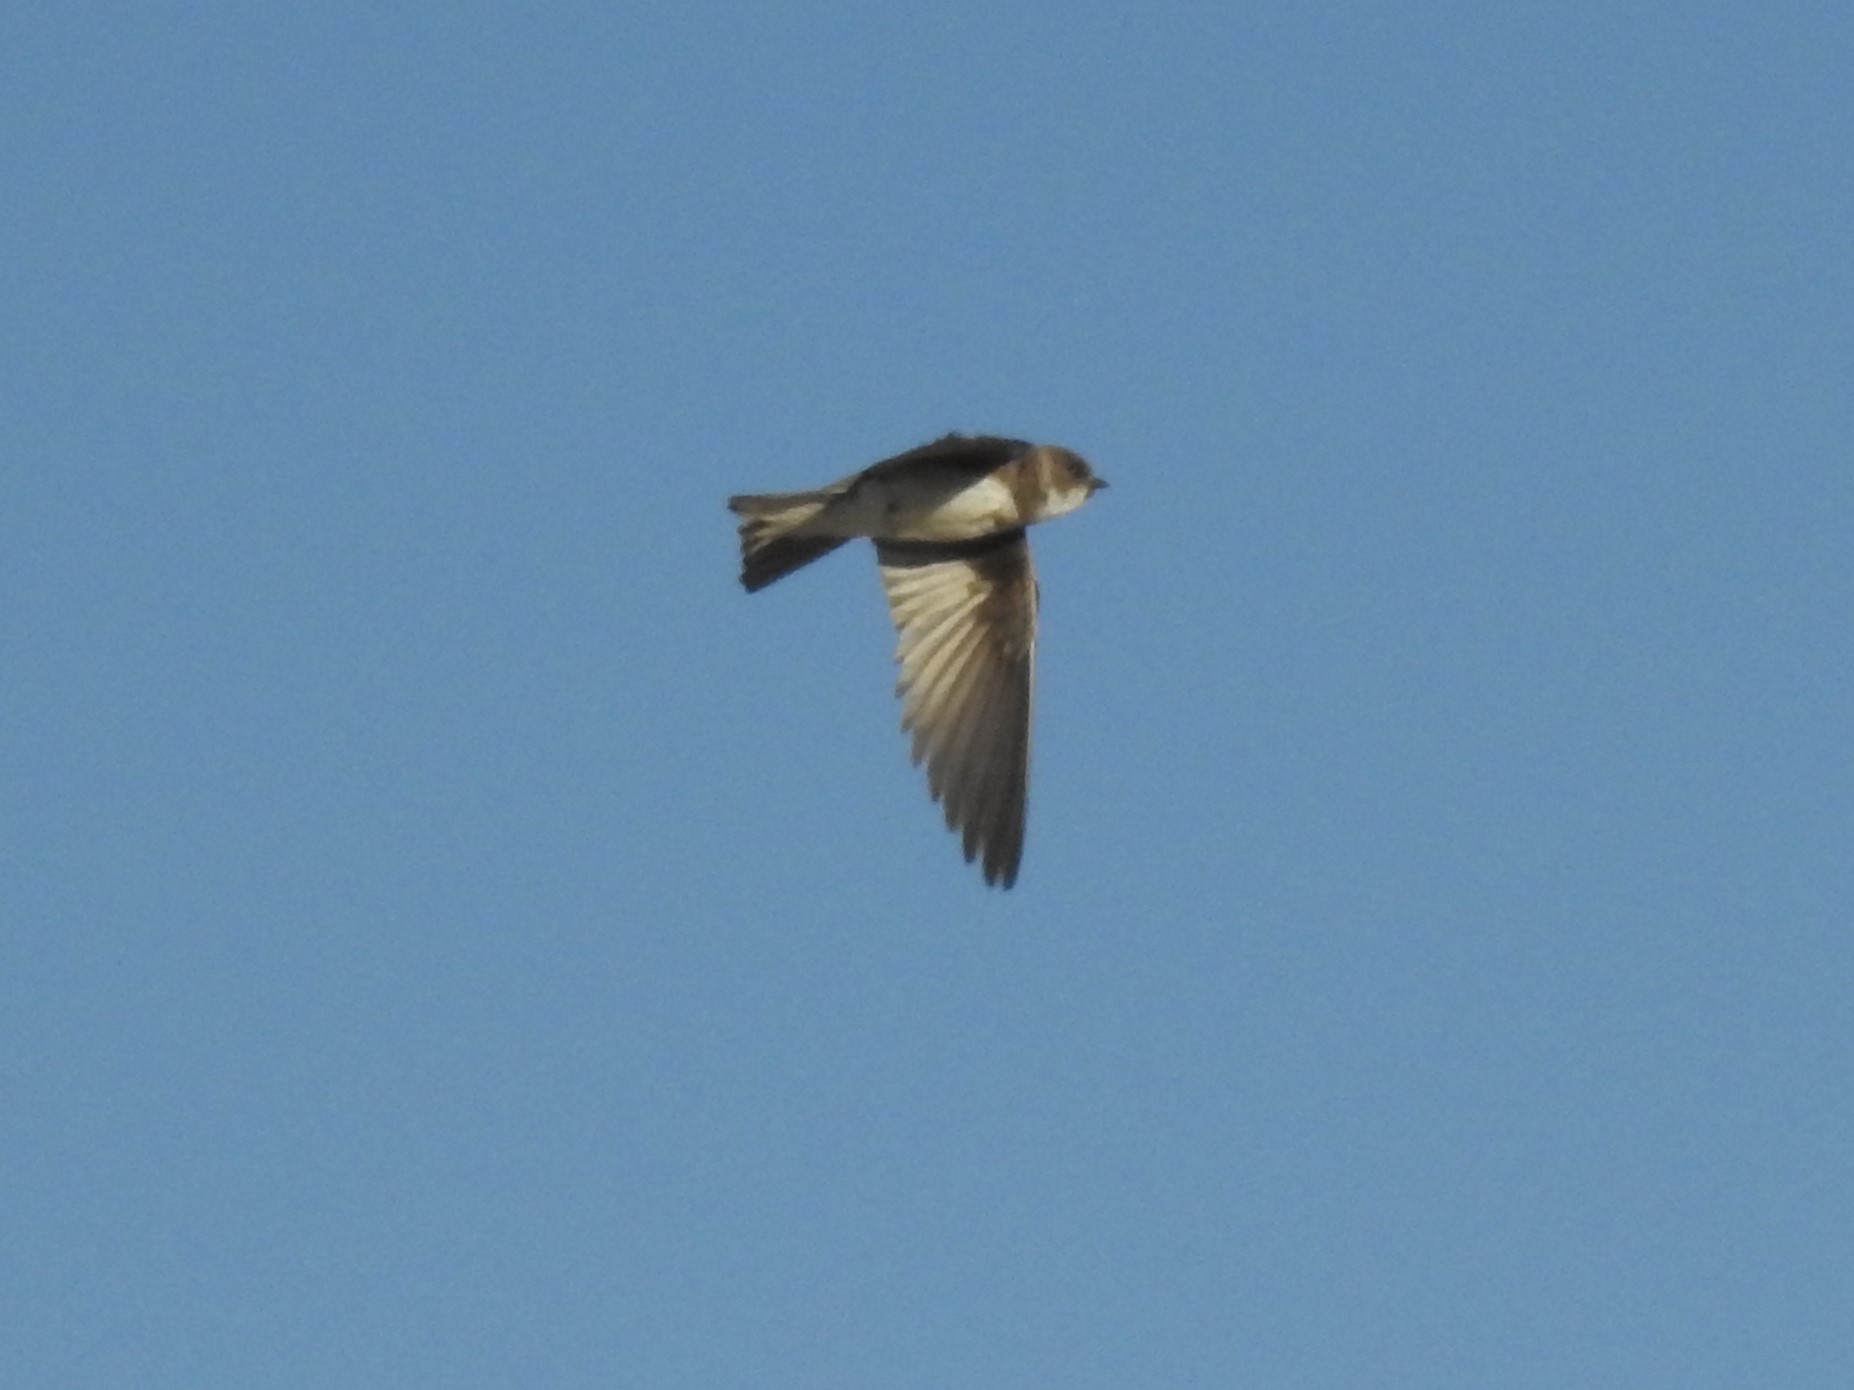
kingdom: Animalia
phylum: Chordata
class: Aves
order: Passeriformes
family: Hirundinidae
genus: Riparia
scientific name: Riparia riparia
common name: Sand martin
